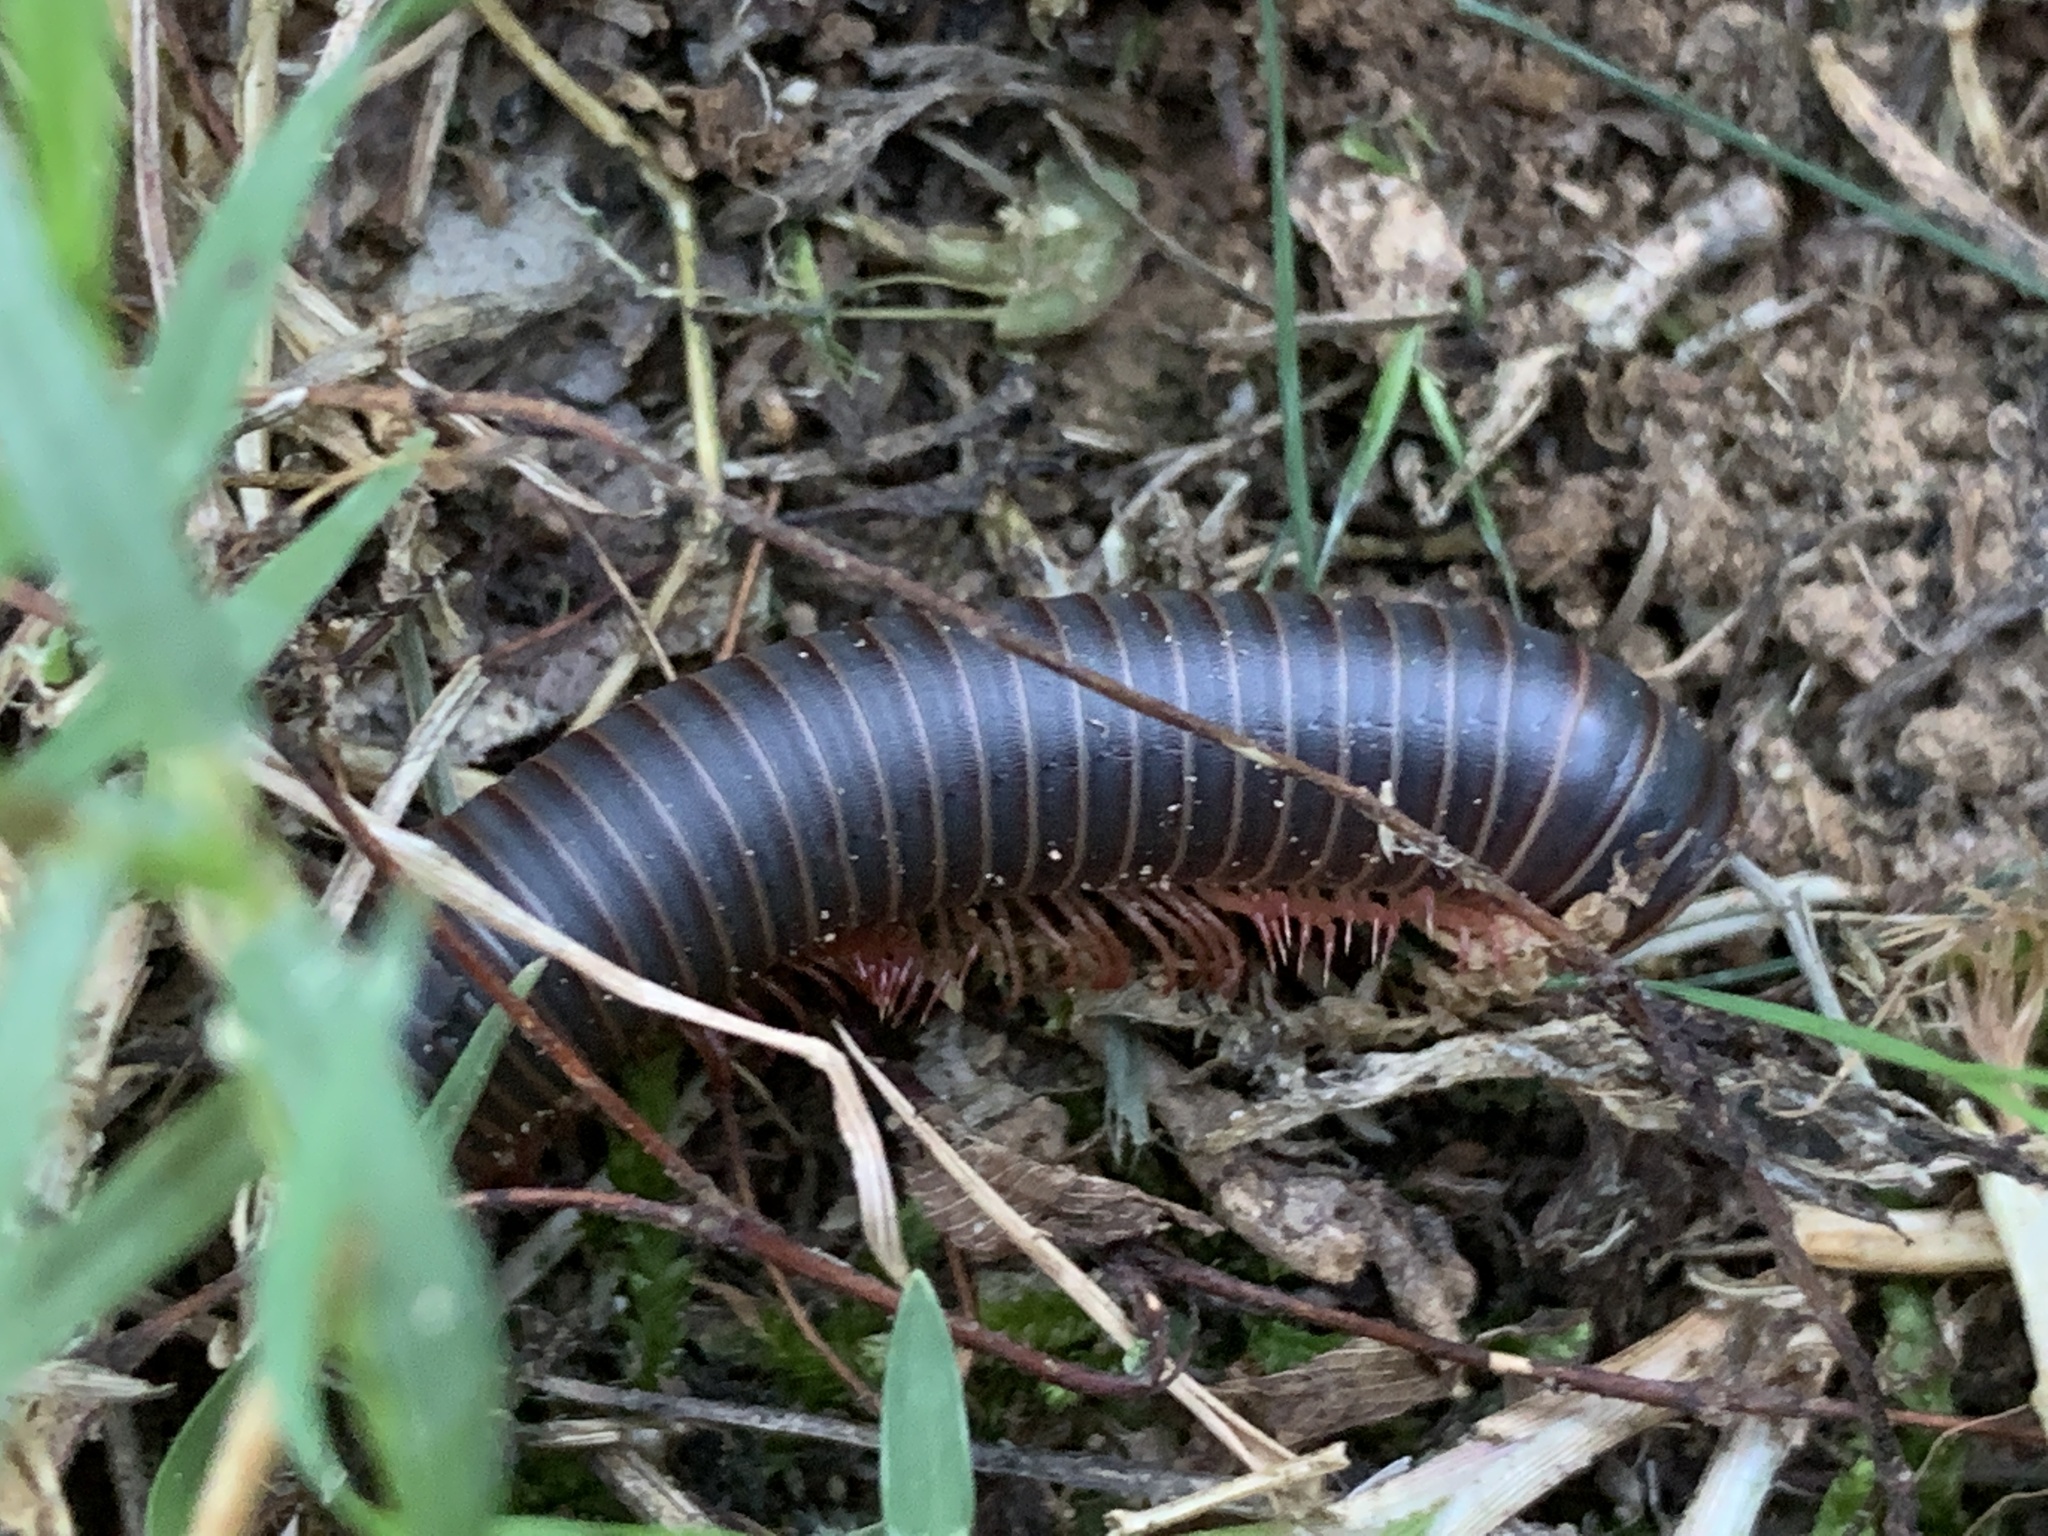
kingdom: Animalia
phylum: Arthropoda
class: Diplopoda
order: Spirobolida
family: Spirobolidae
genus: Narceus
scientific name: Narceus
